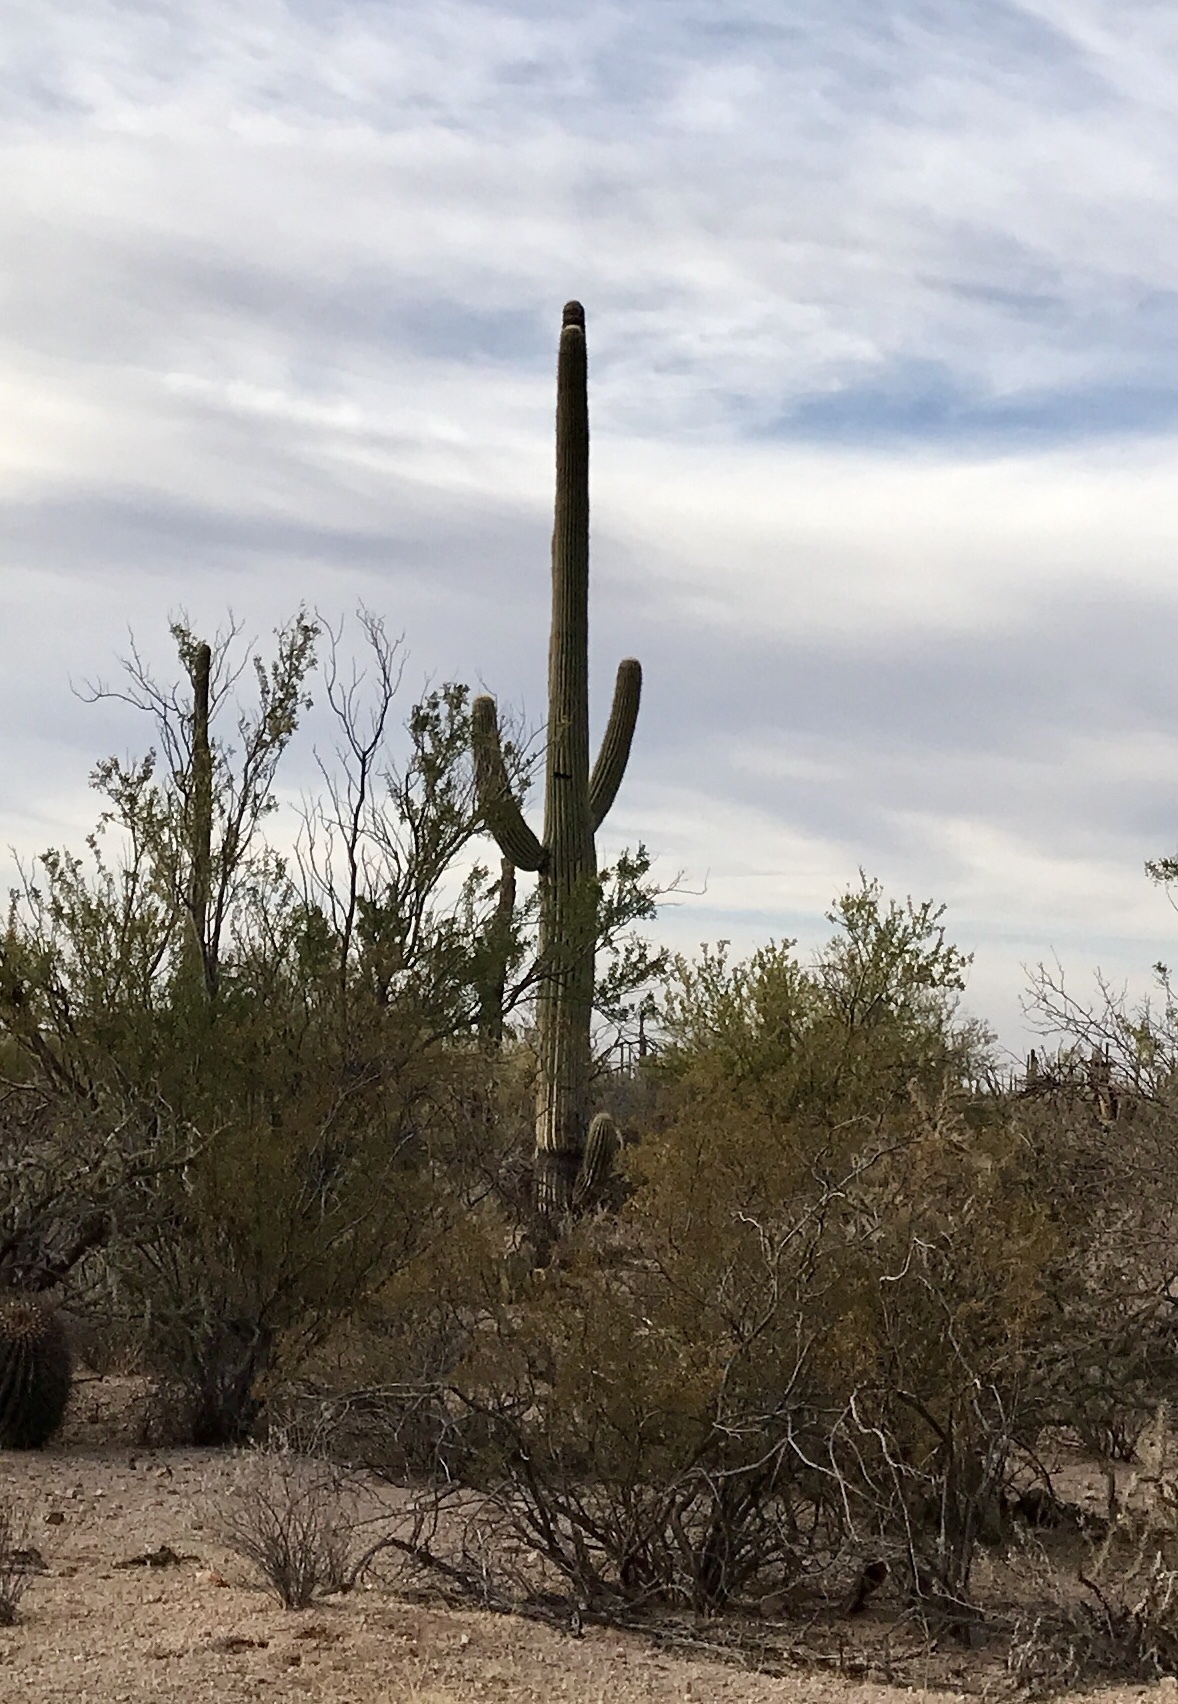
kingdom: Plantae
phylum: Tracheophyta
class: Magnoliopsida
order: Caryophyllales
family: Cactaceae
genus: Carnegiea
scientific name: Carnegiea gigantea
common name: Saguaro
